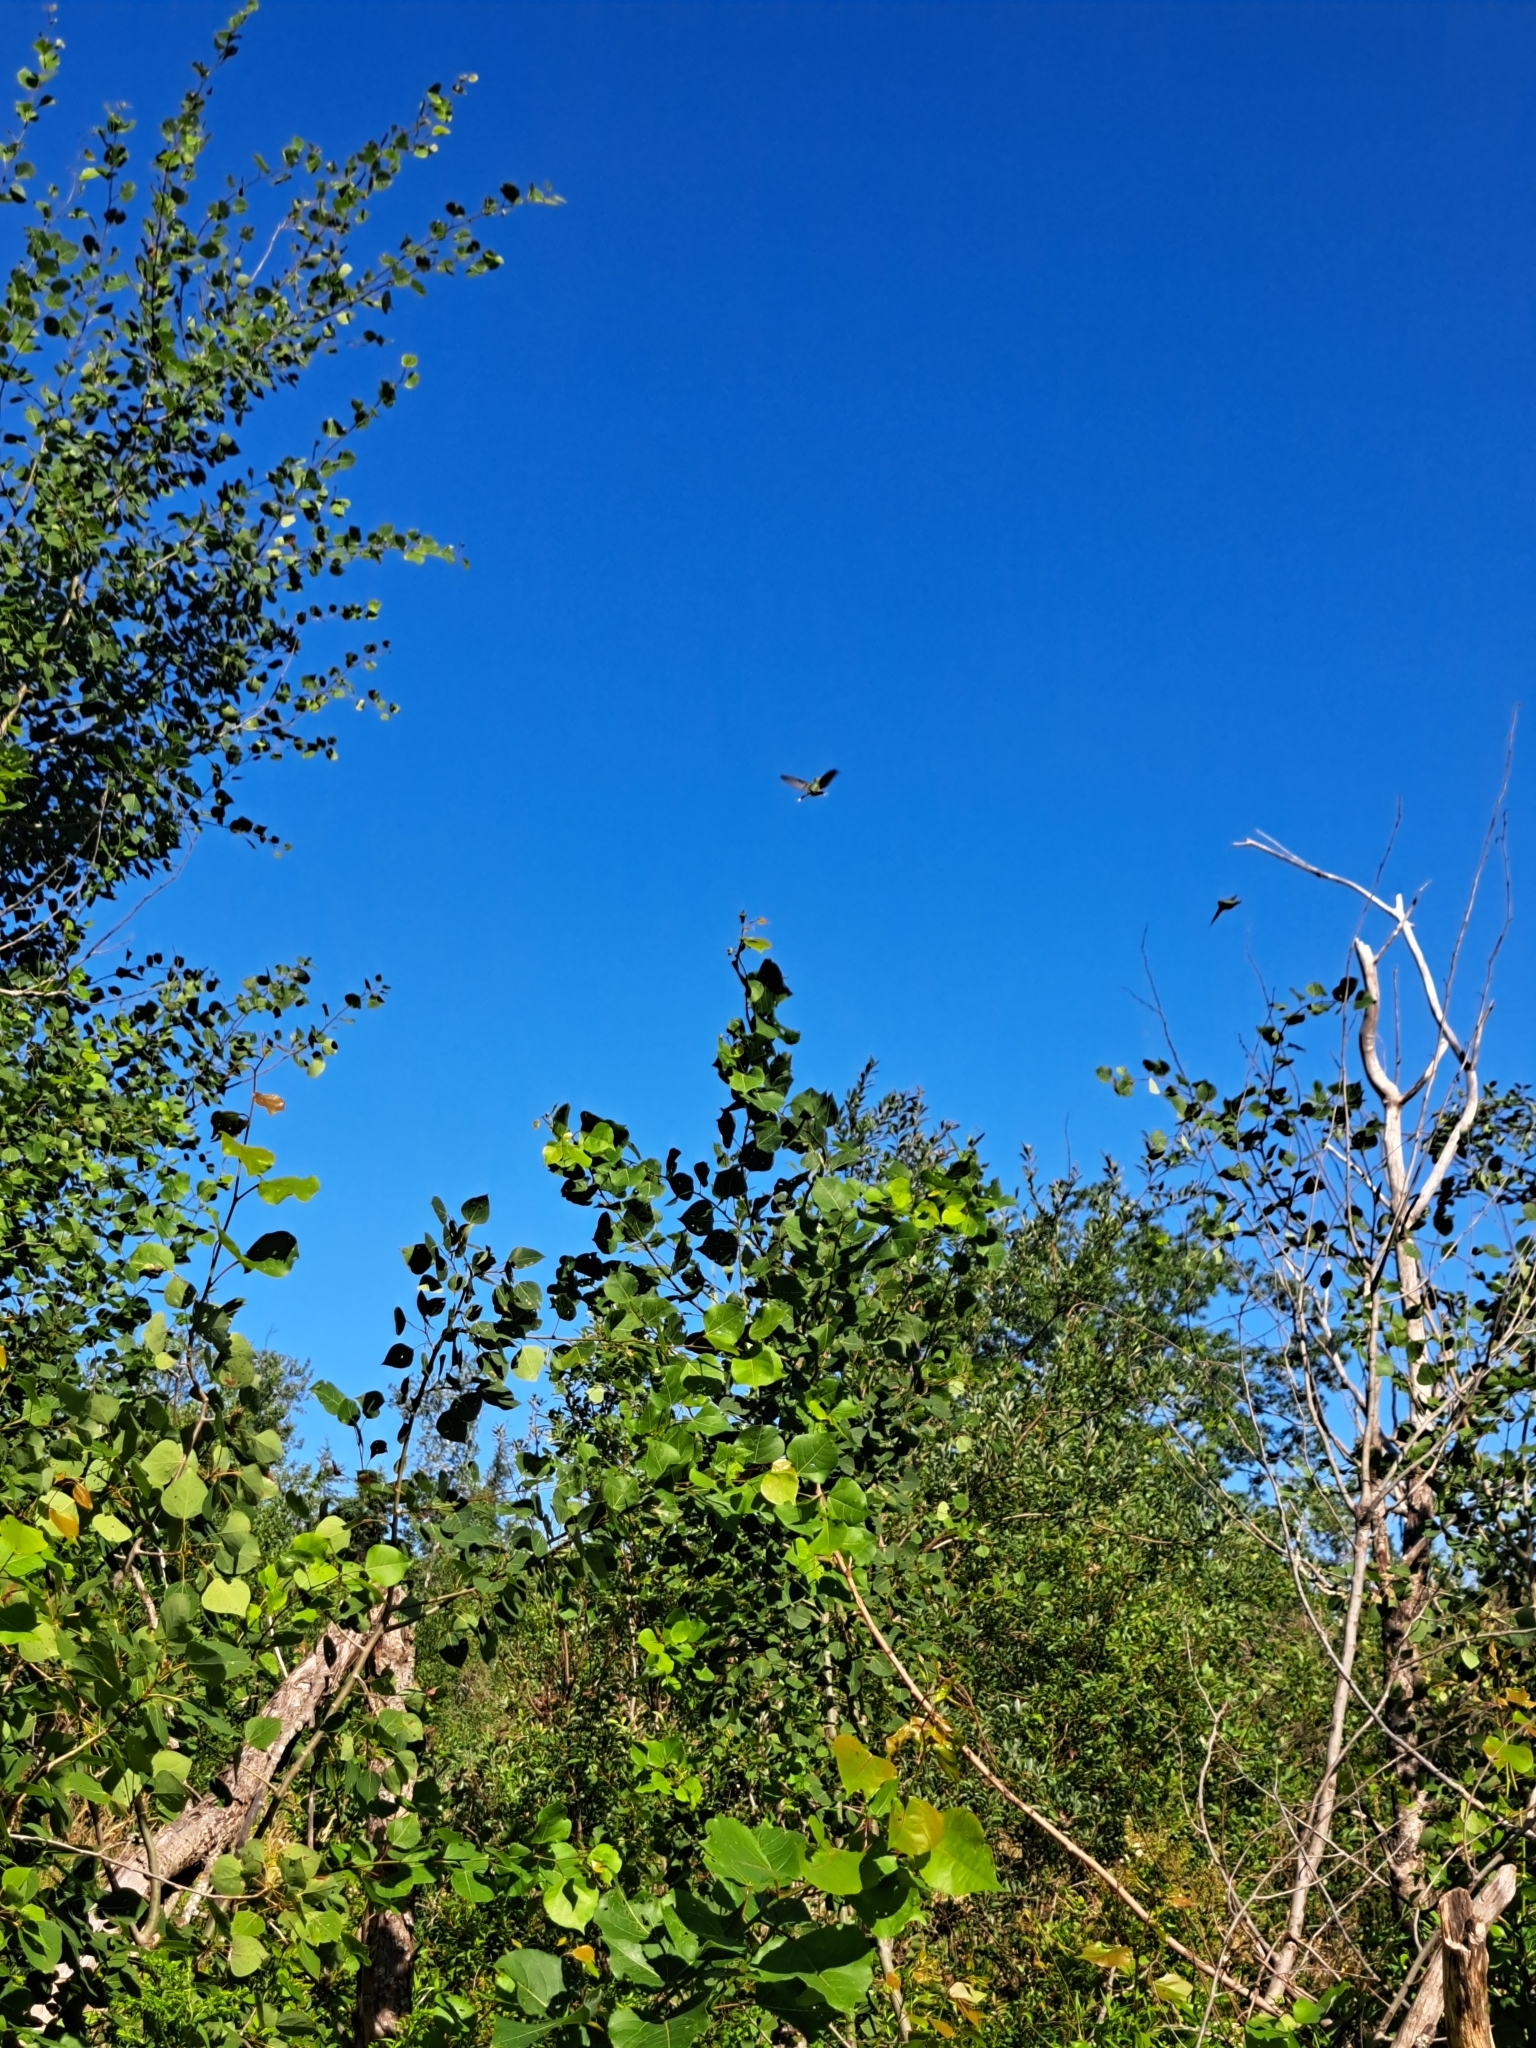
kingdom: Animalia
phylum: Chordata
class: Aves
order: Apodiformes
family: Trochilidae
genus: Archilochus
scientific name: Archilochus colubris
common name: Ruby-throated hummingbird
